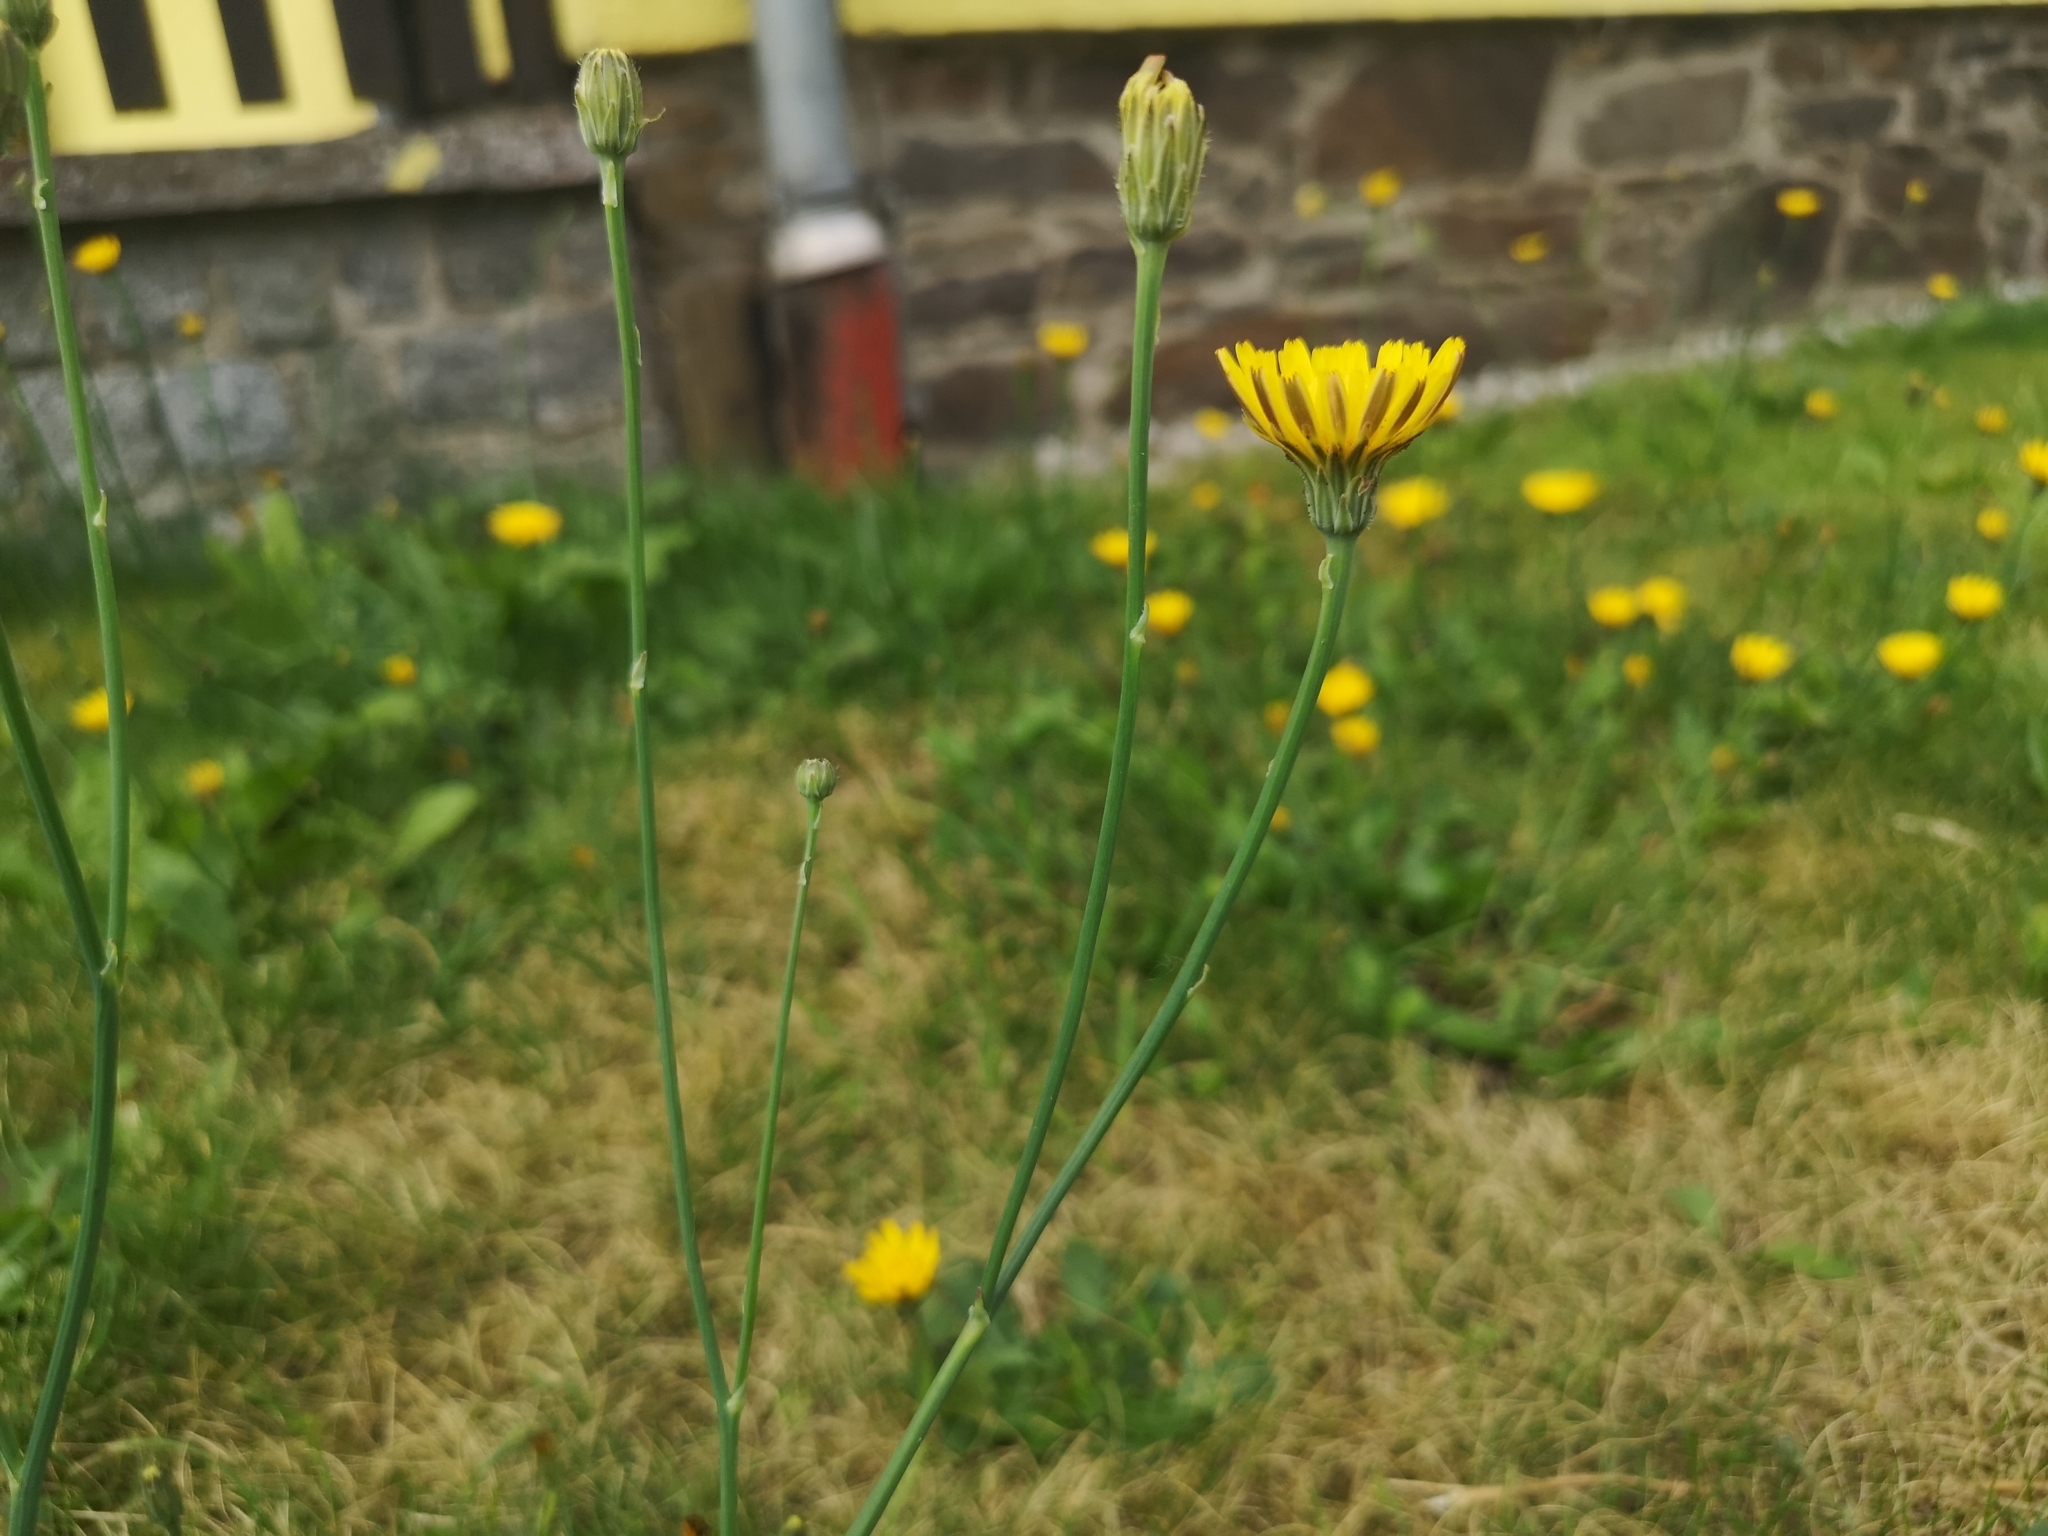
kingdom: Plantae
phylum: Tracheophyta
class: Magnoliopsida
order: Asterales
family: Asteraceae
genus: Hypochaeris
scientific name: Hypochaeris radicata
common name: Flatweed
